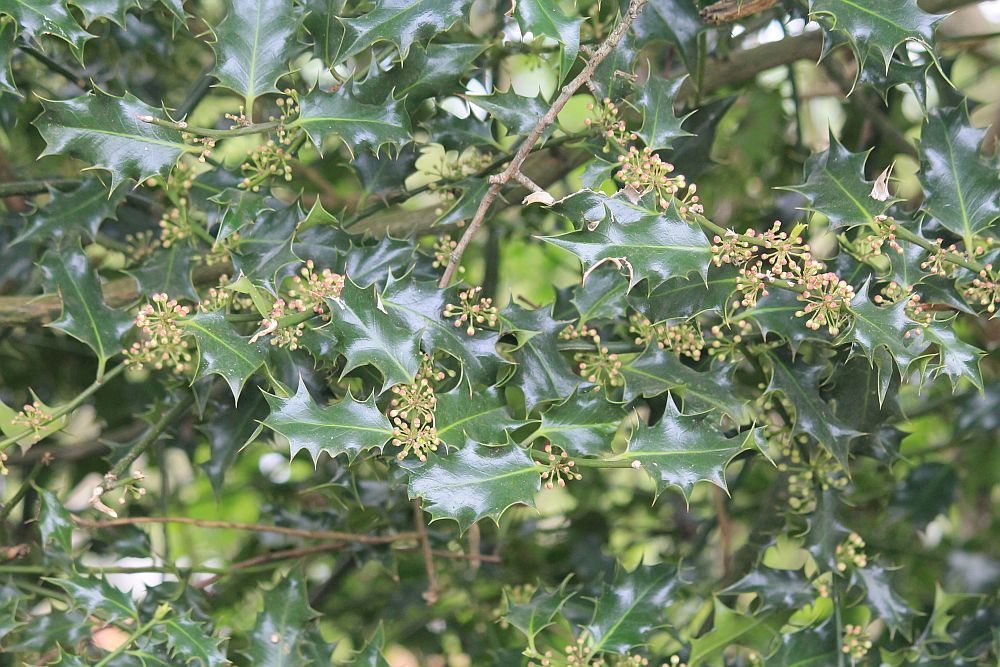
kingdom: Plantae
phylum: Tracheophyta
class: Magnoliopsida
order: Aquifoliales
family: Aquifoliaceae
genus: Ilex
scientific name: Ilex aquifolium
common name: English holly
